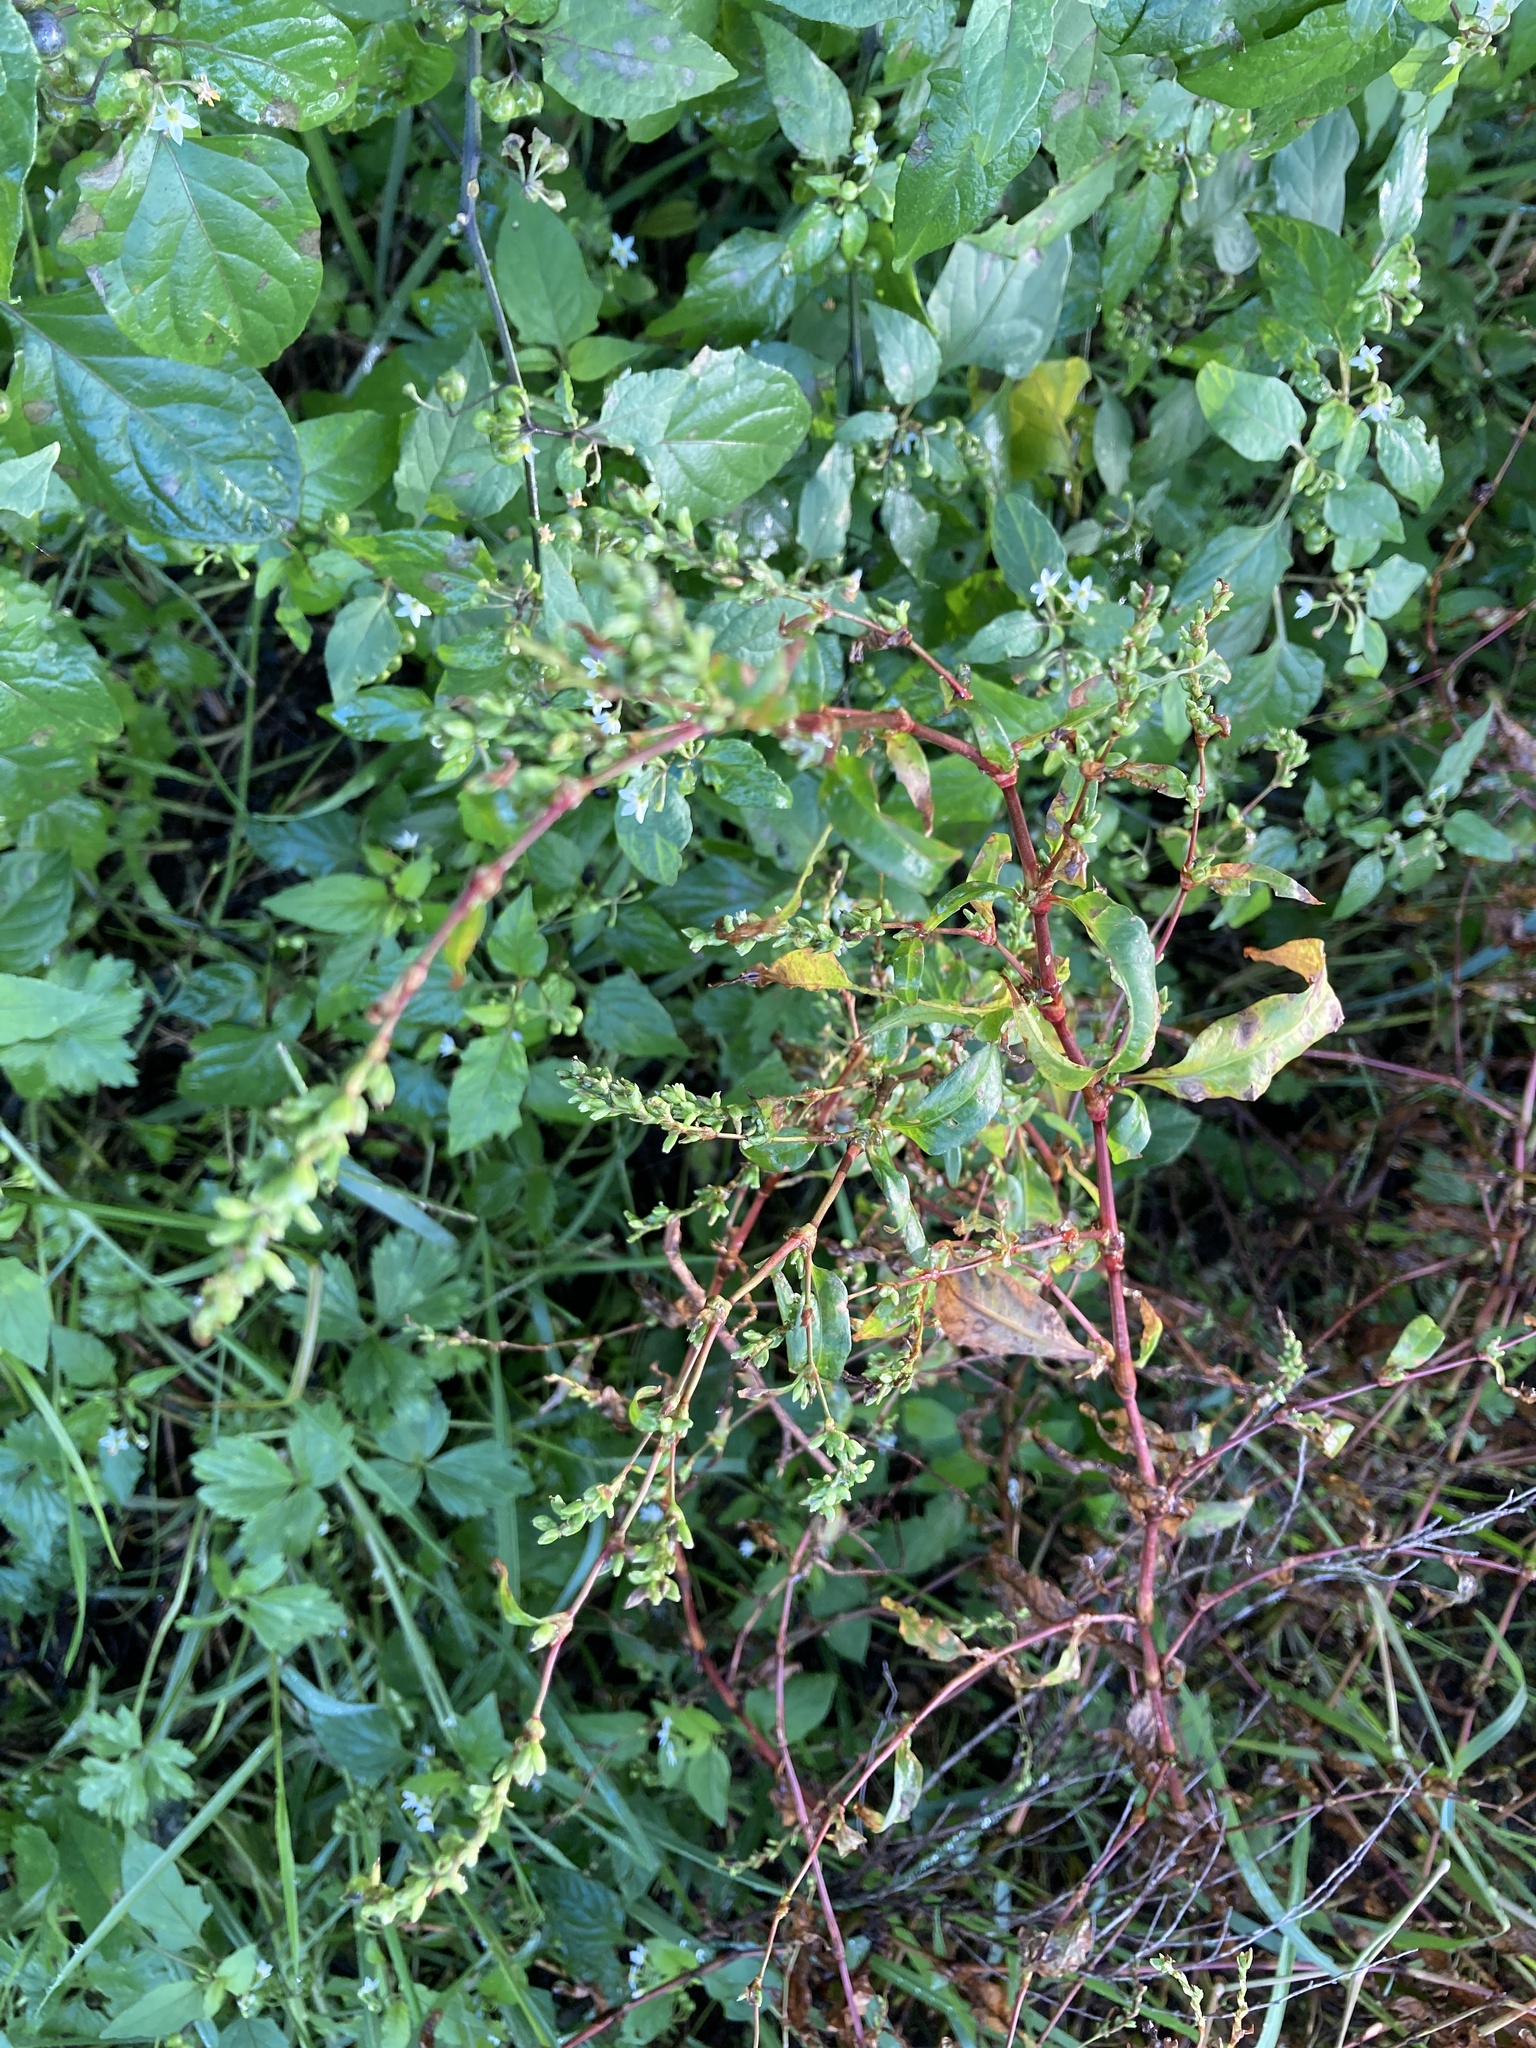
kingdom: Plantae
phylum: Tracheophyta
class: Magnoliopsida
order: Caryophyllales
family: Polygonaceae
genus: Persicaria
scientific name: Persicaria hydropiper
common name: Water-pepper
